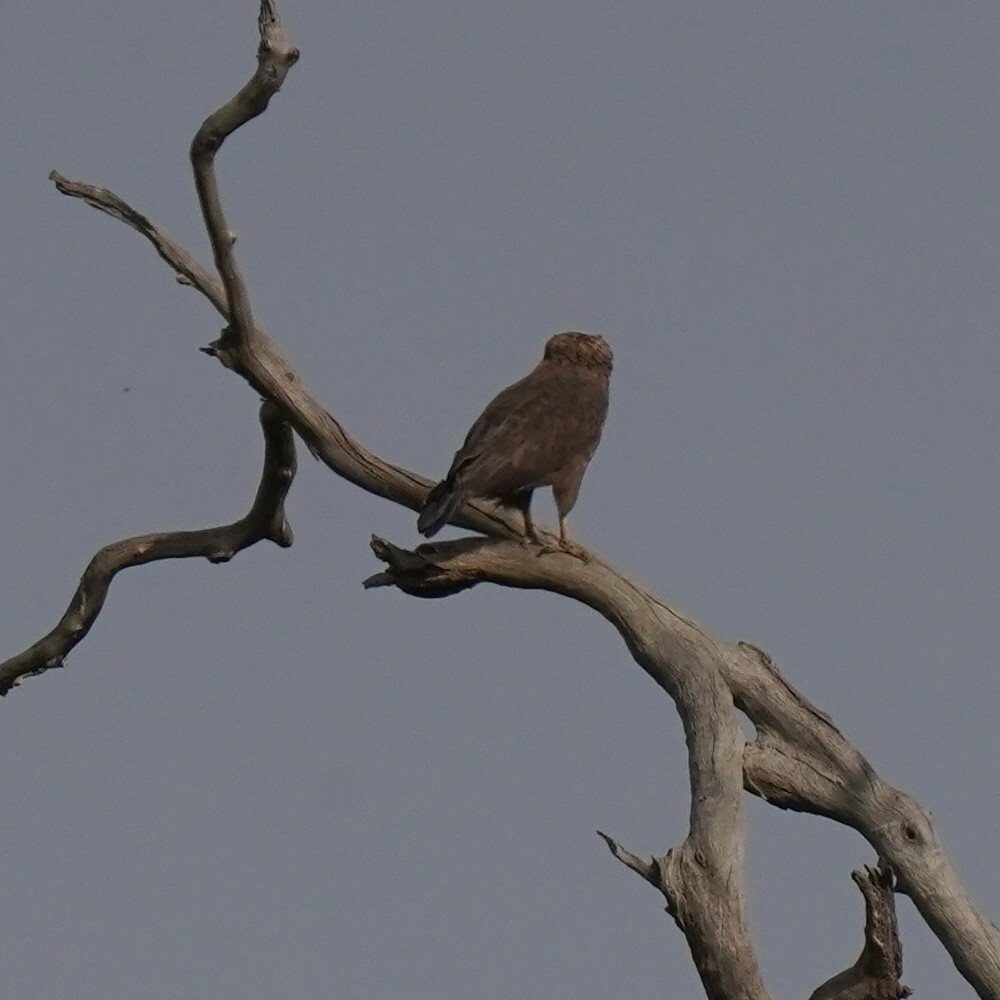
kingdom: Animalia
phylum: Chordata
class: Aves
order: Accipitriformes
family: Accipitridae
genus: Circaetus
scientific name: Circaetus cinerascens
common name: Western banded snake eagle
